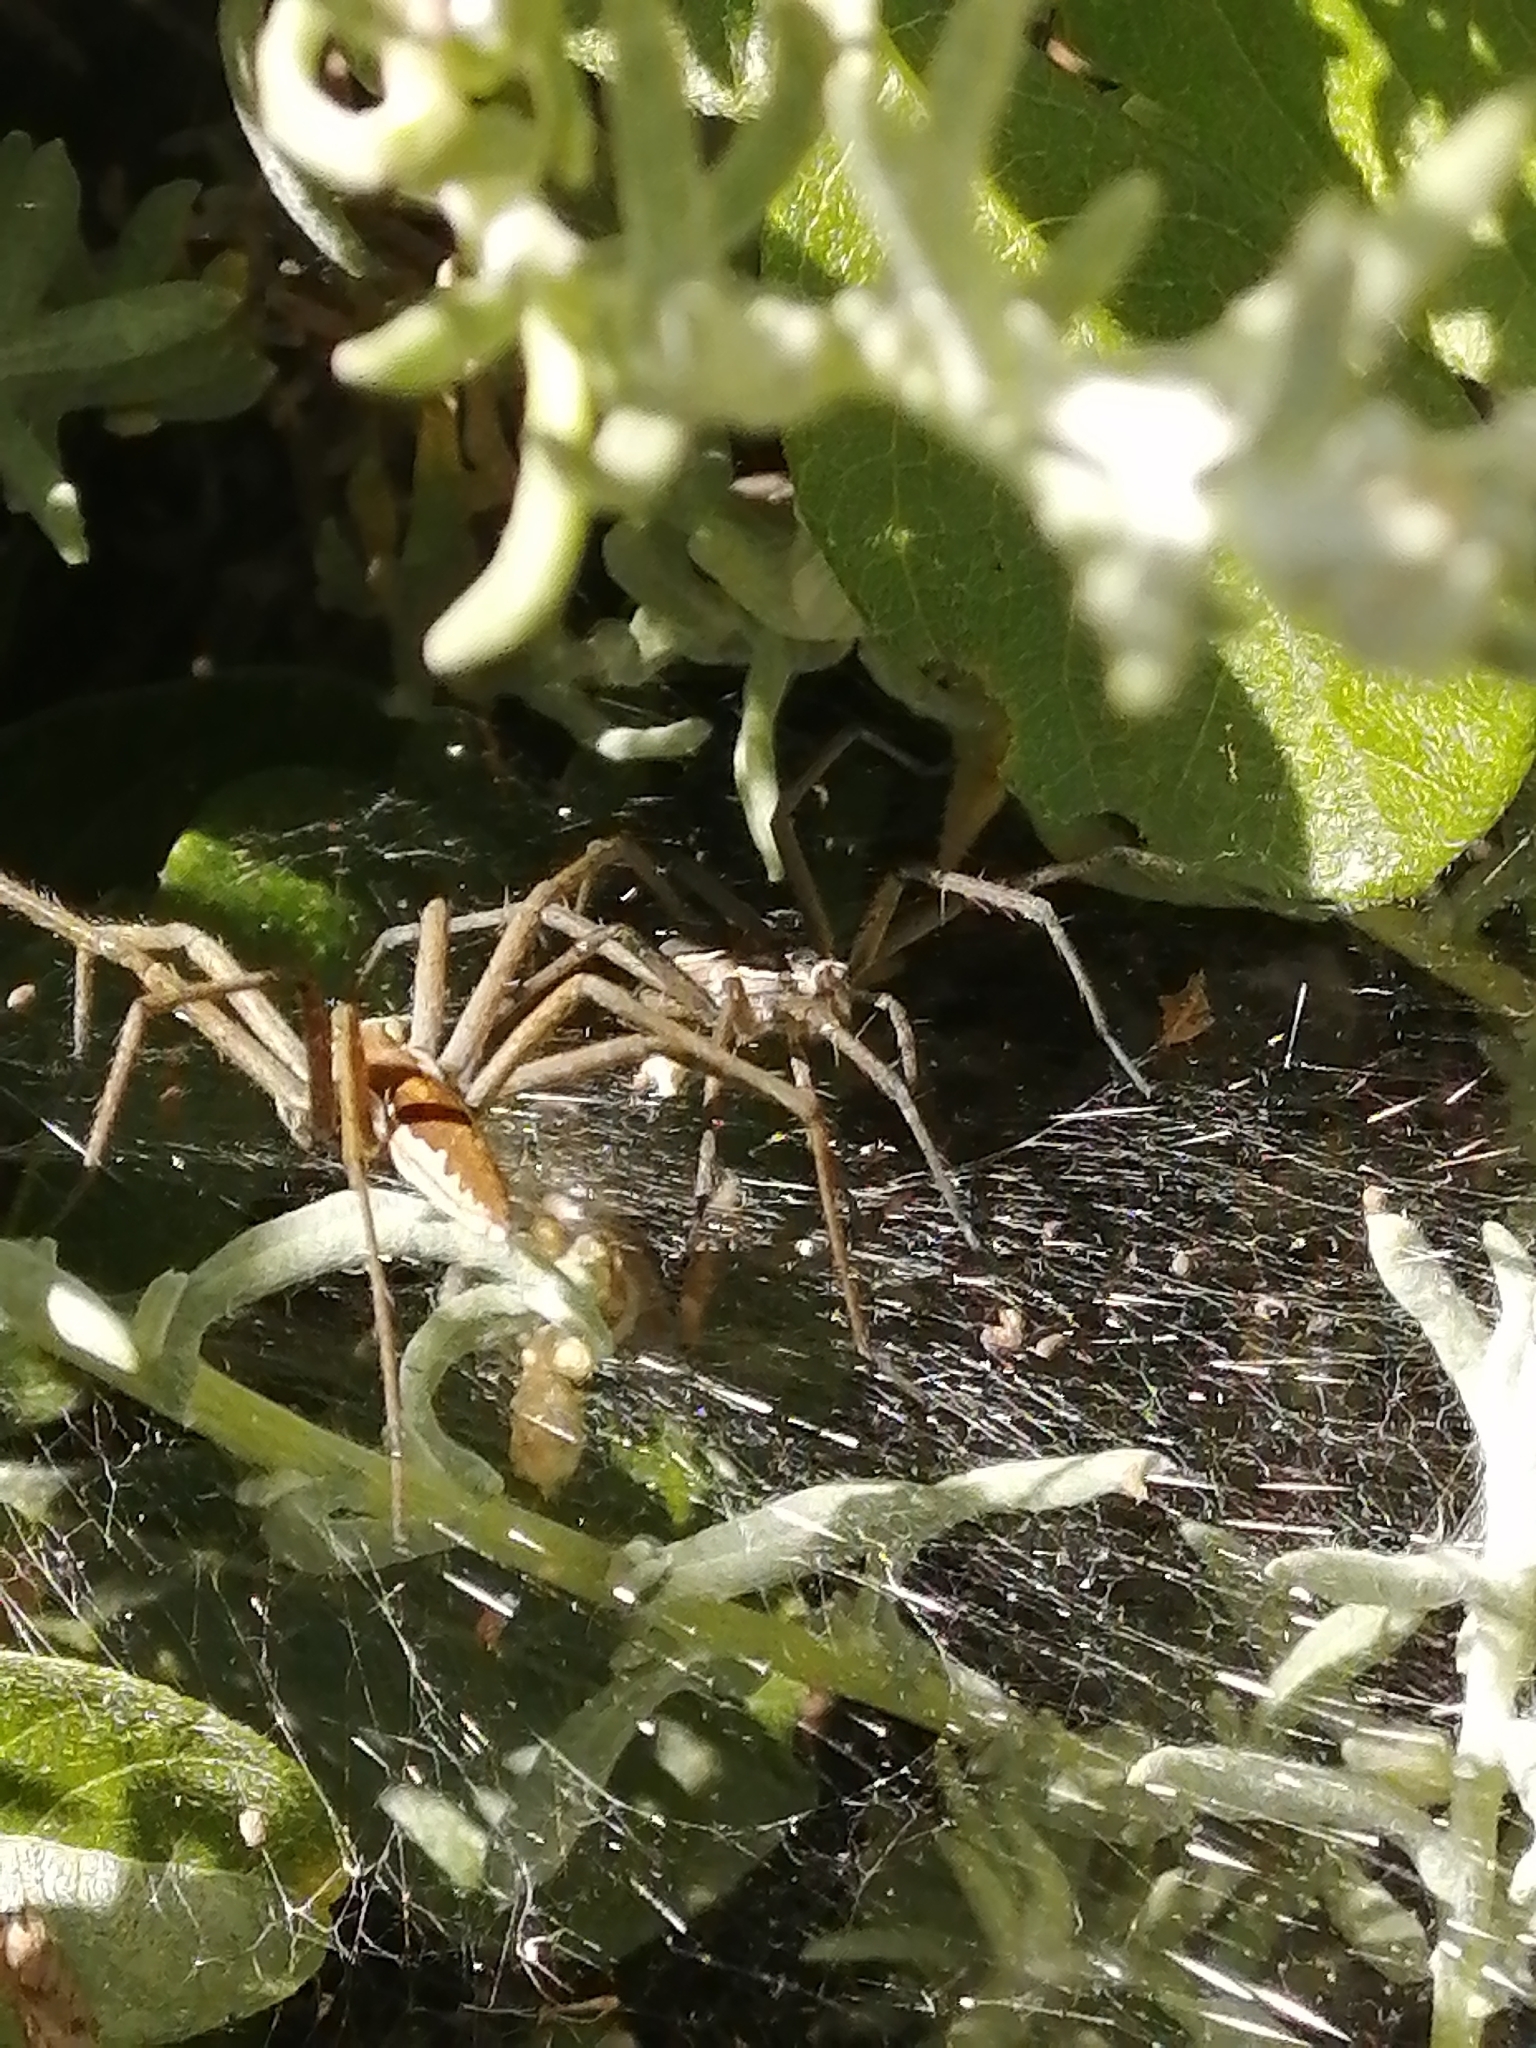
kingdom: Animalia
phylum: Arthropoda
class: Arachnida
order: Araneae
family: Pisauridae
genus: Euprosthenopsis
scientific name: Euprosthenopsis pulchella
